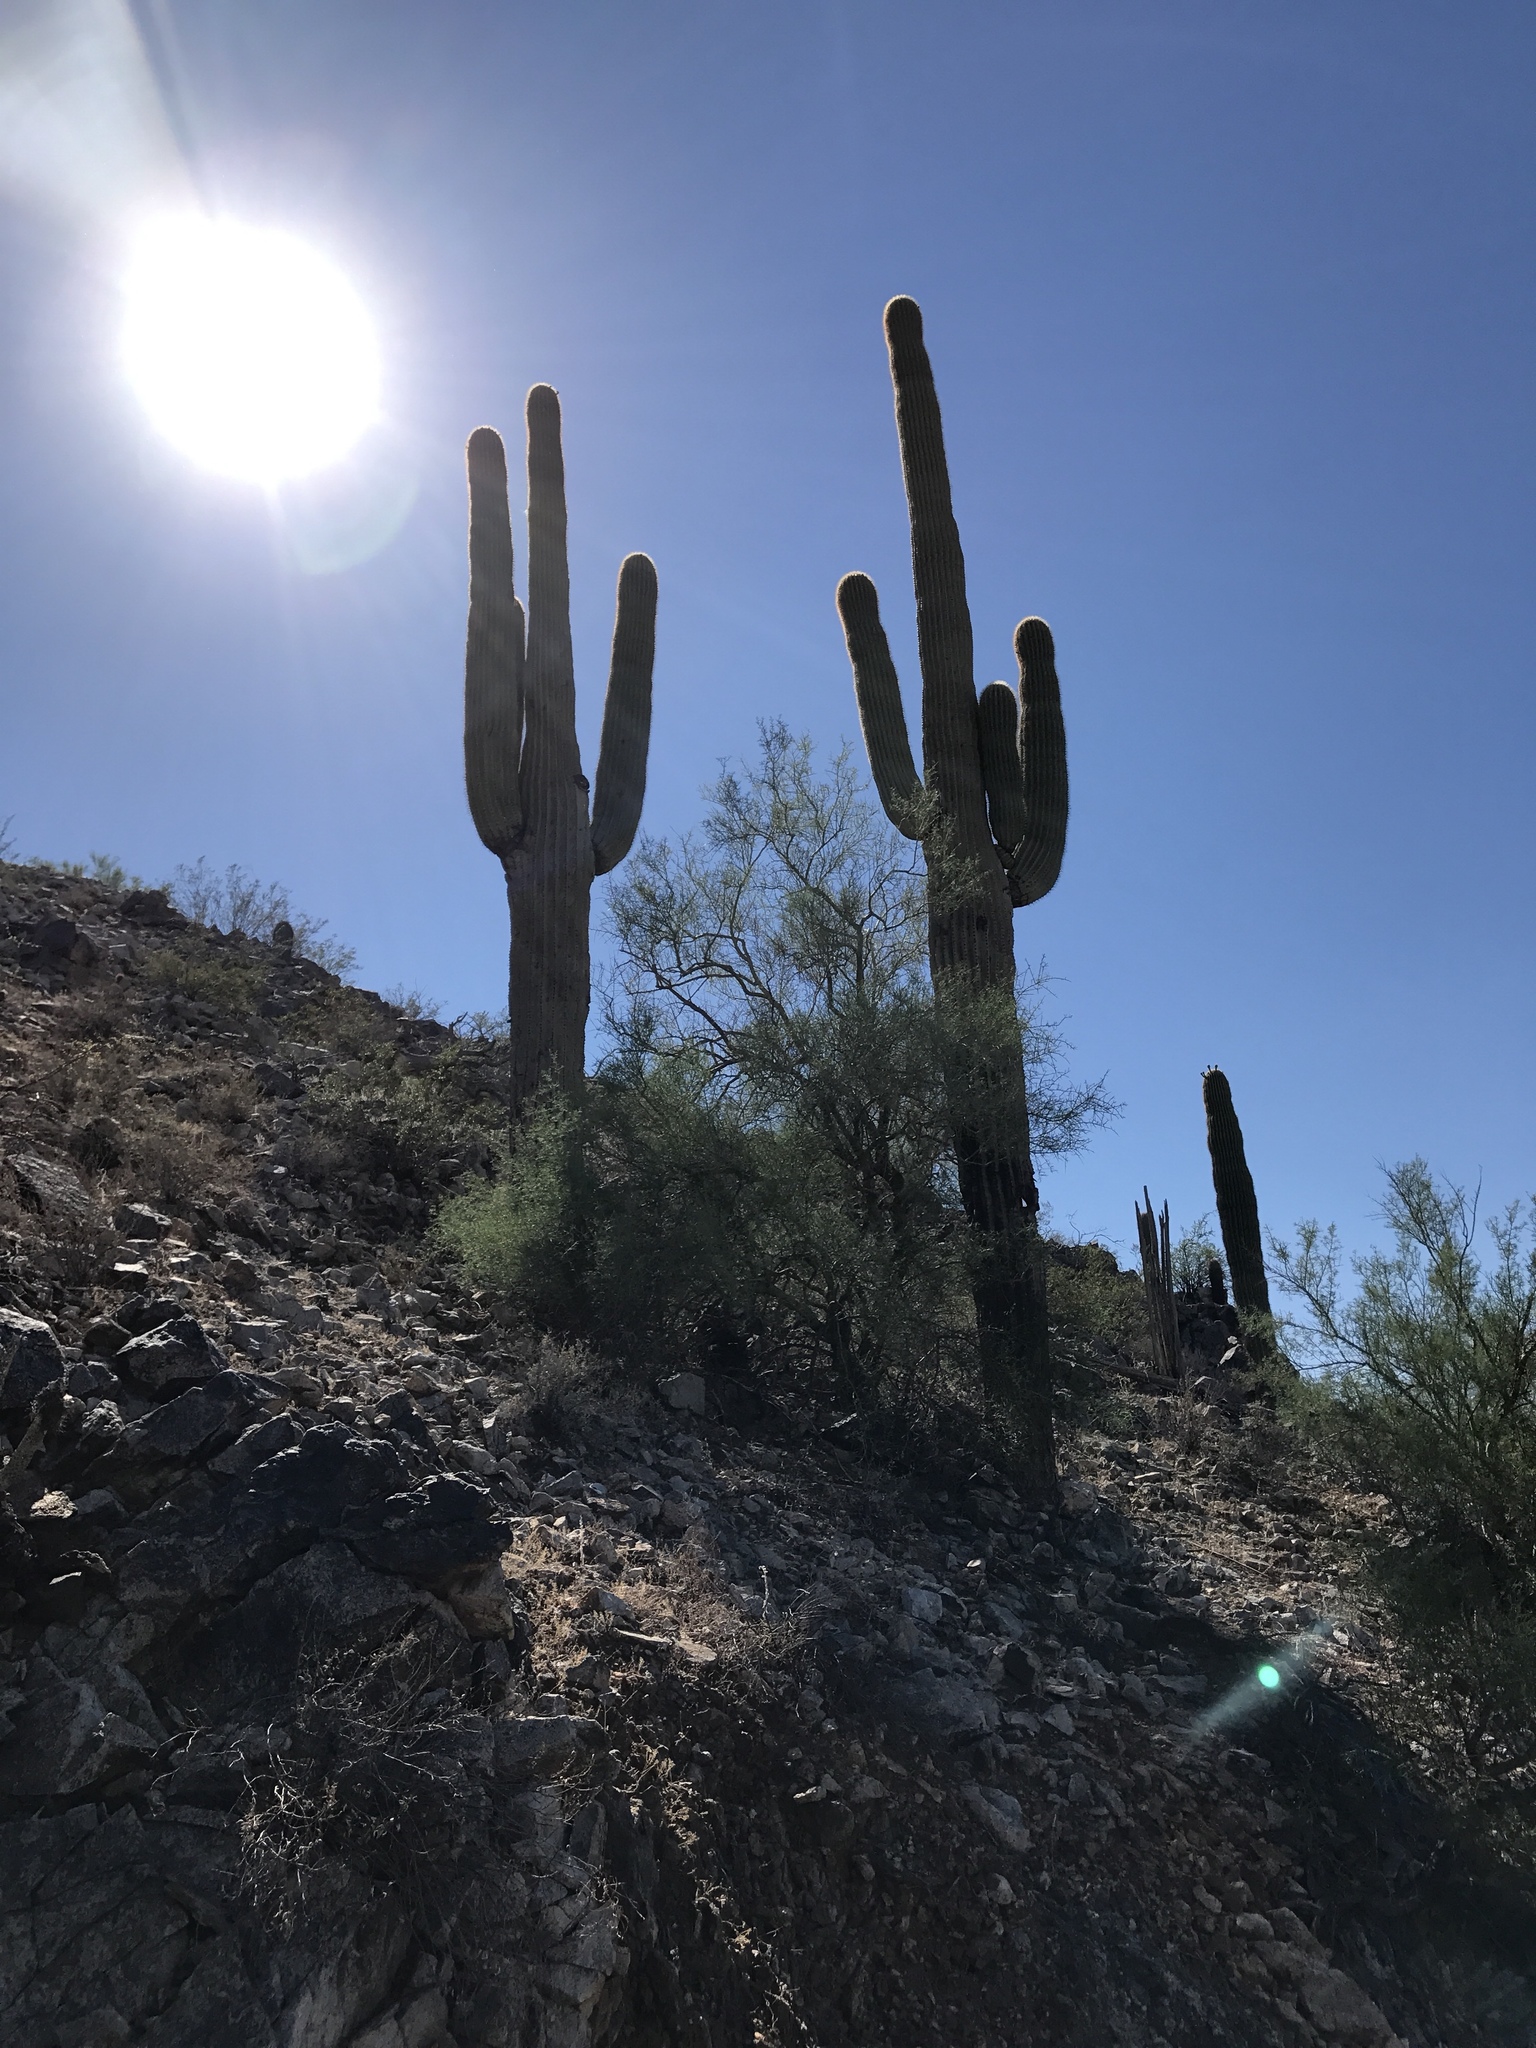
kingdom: Plantae
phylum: Tracheophyta
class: Magnoliopsida
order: Caryophyllales
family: Cactaceae
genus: Carnegiea
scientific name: Carnegiea gigantea
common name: Saguaro
